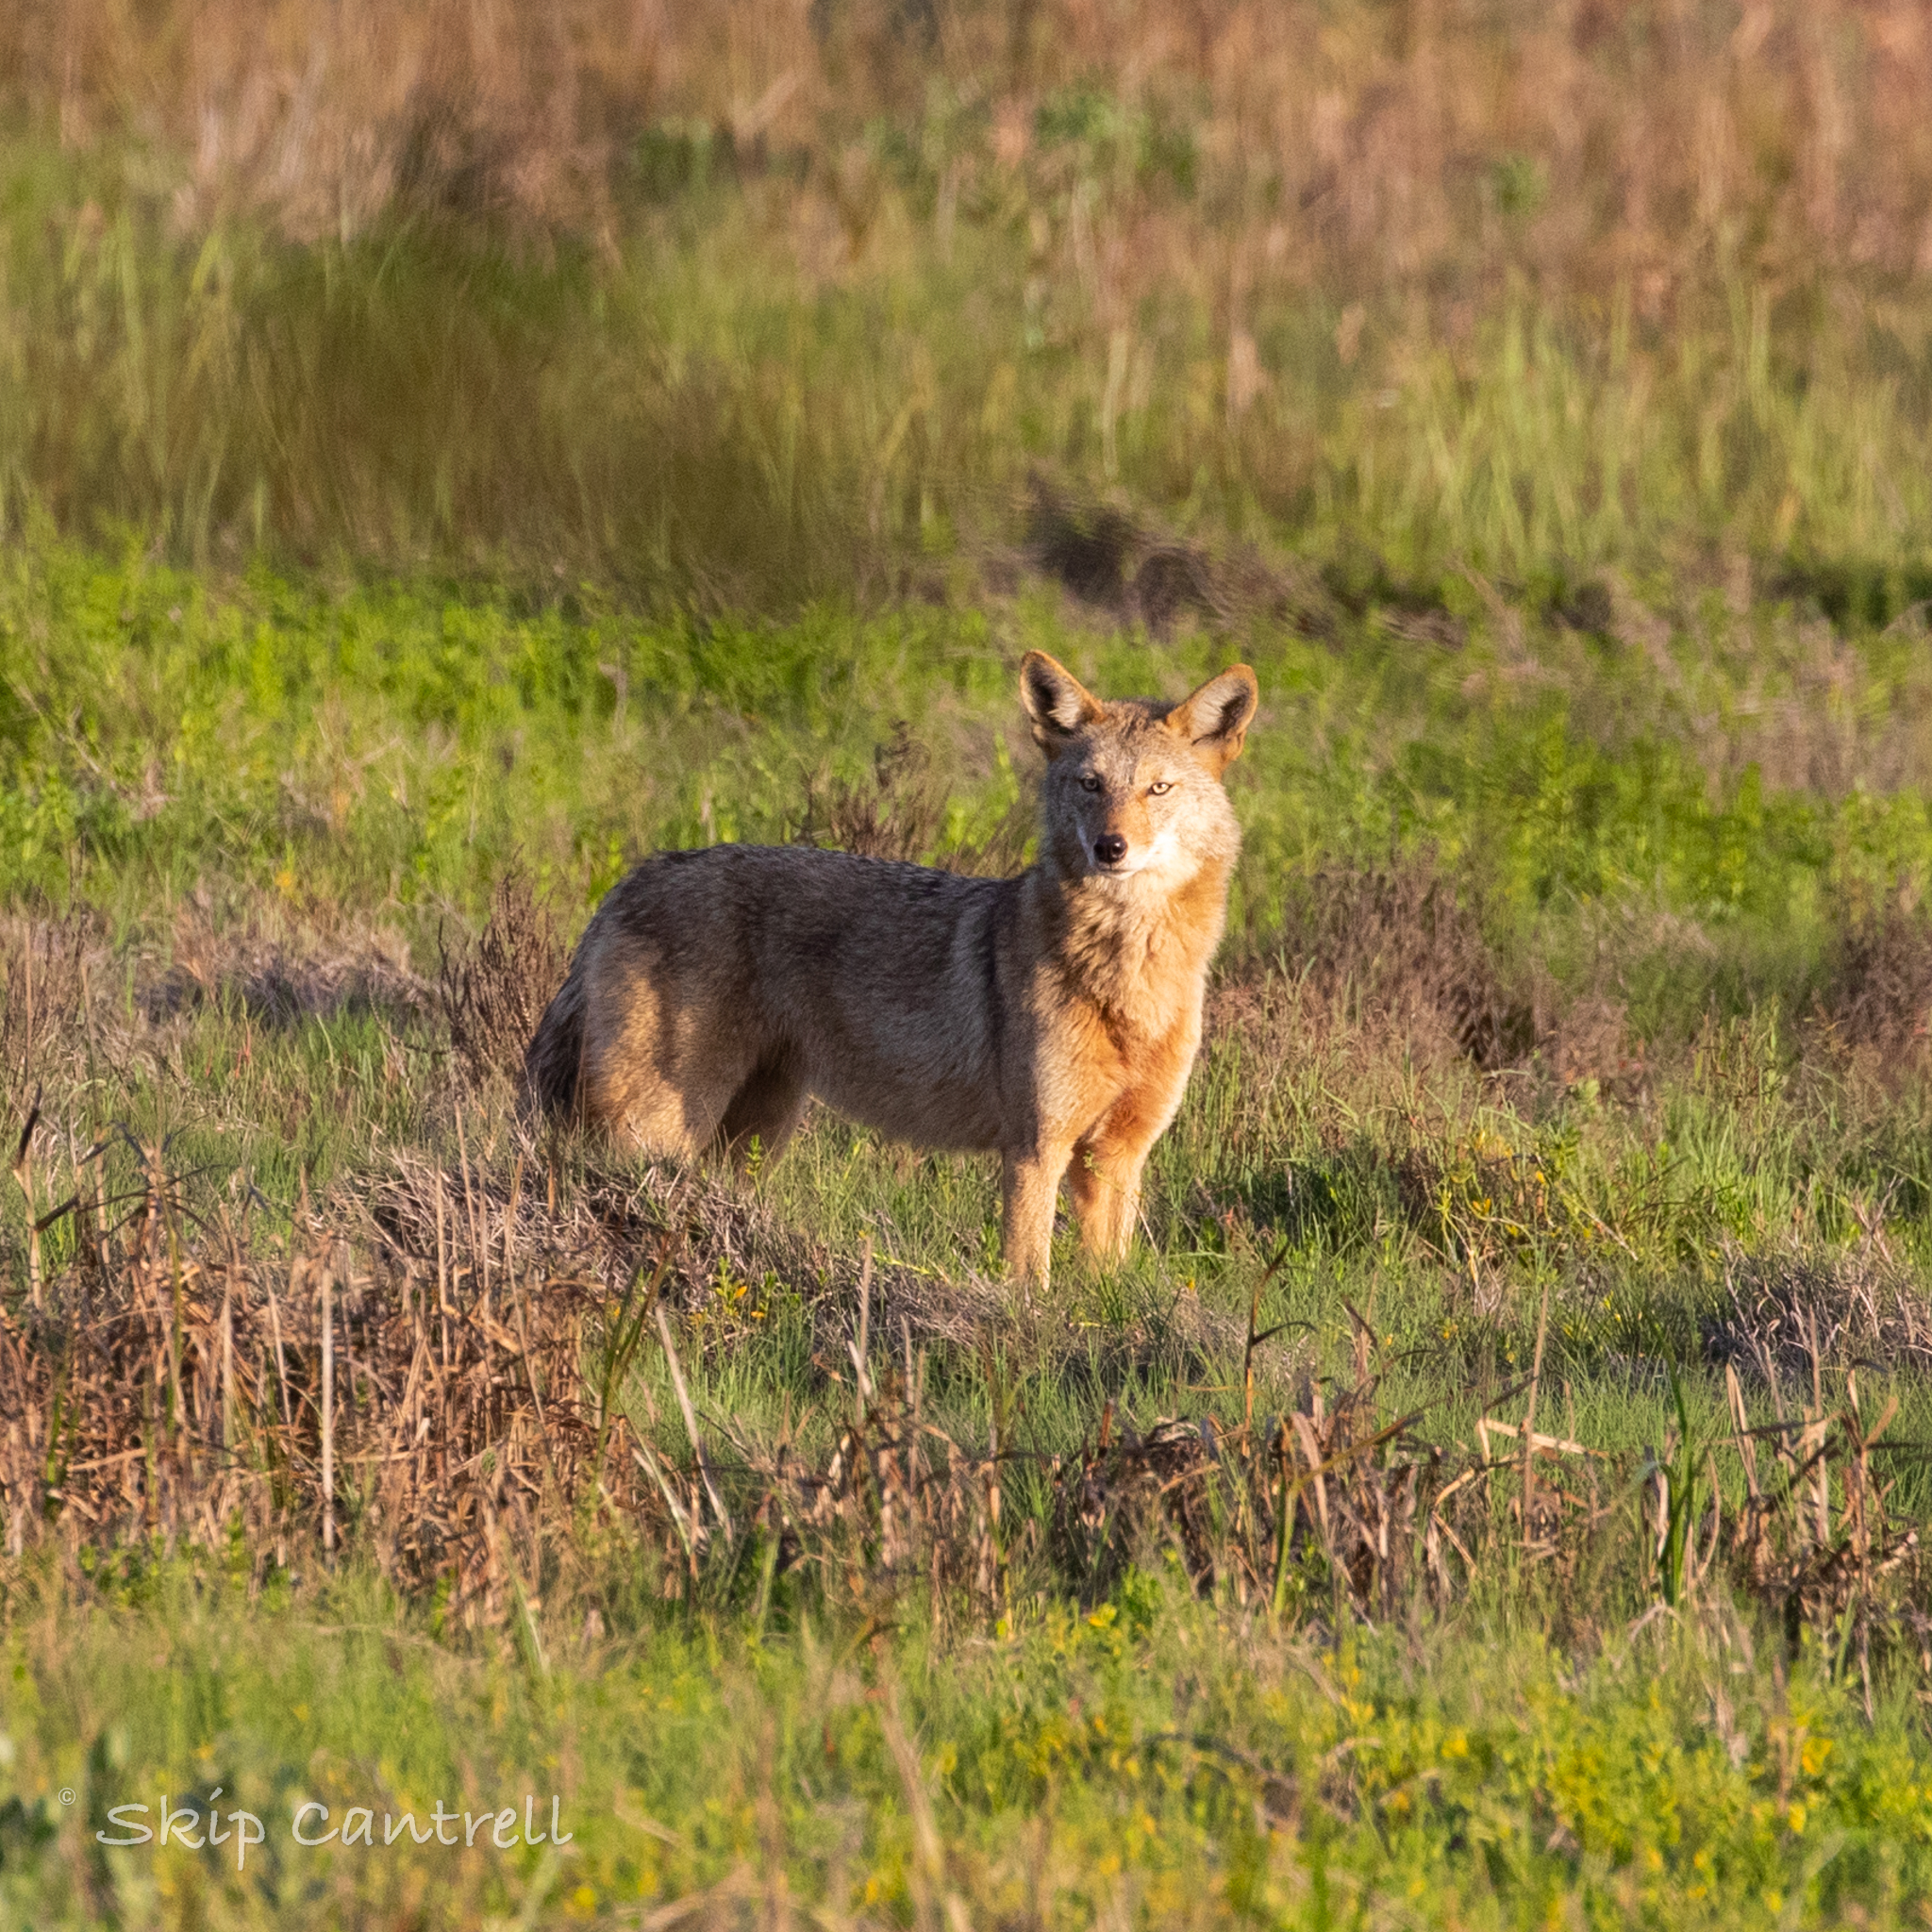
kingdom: Animalia
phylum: Chordata
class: Mammalia
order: Carnivora
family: Canidae
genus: Canis
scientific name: Canis latrans
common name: Coyote
